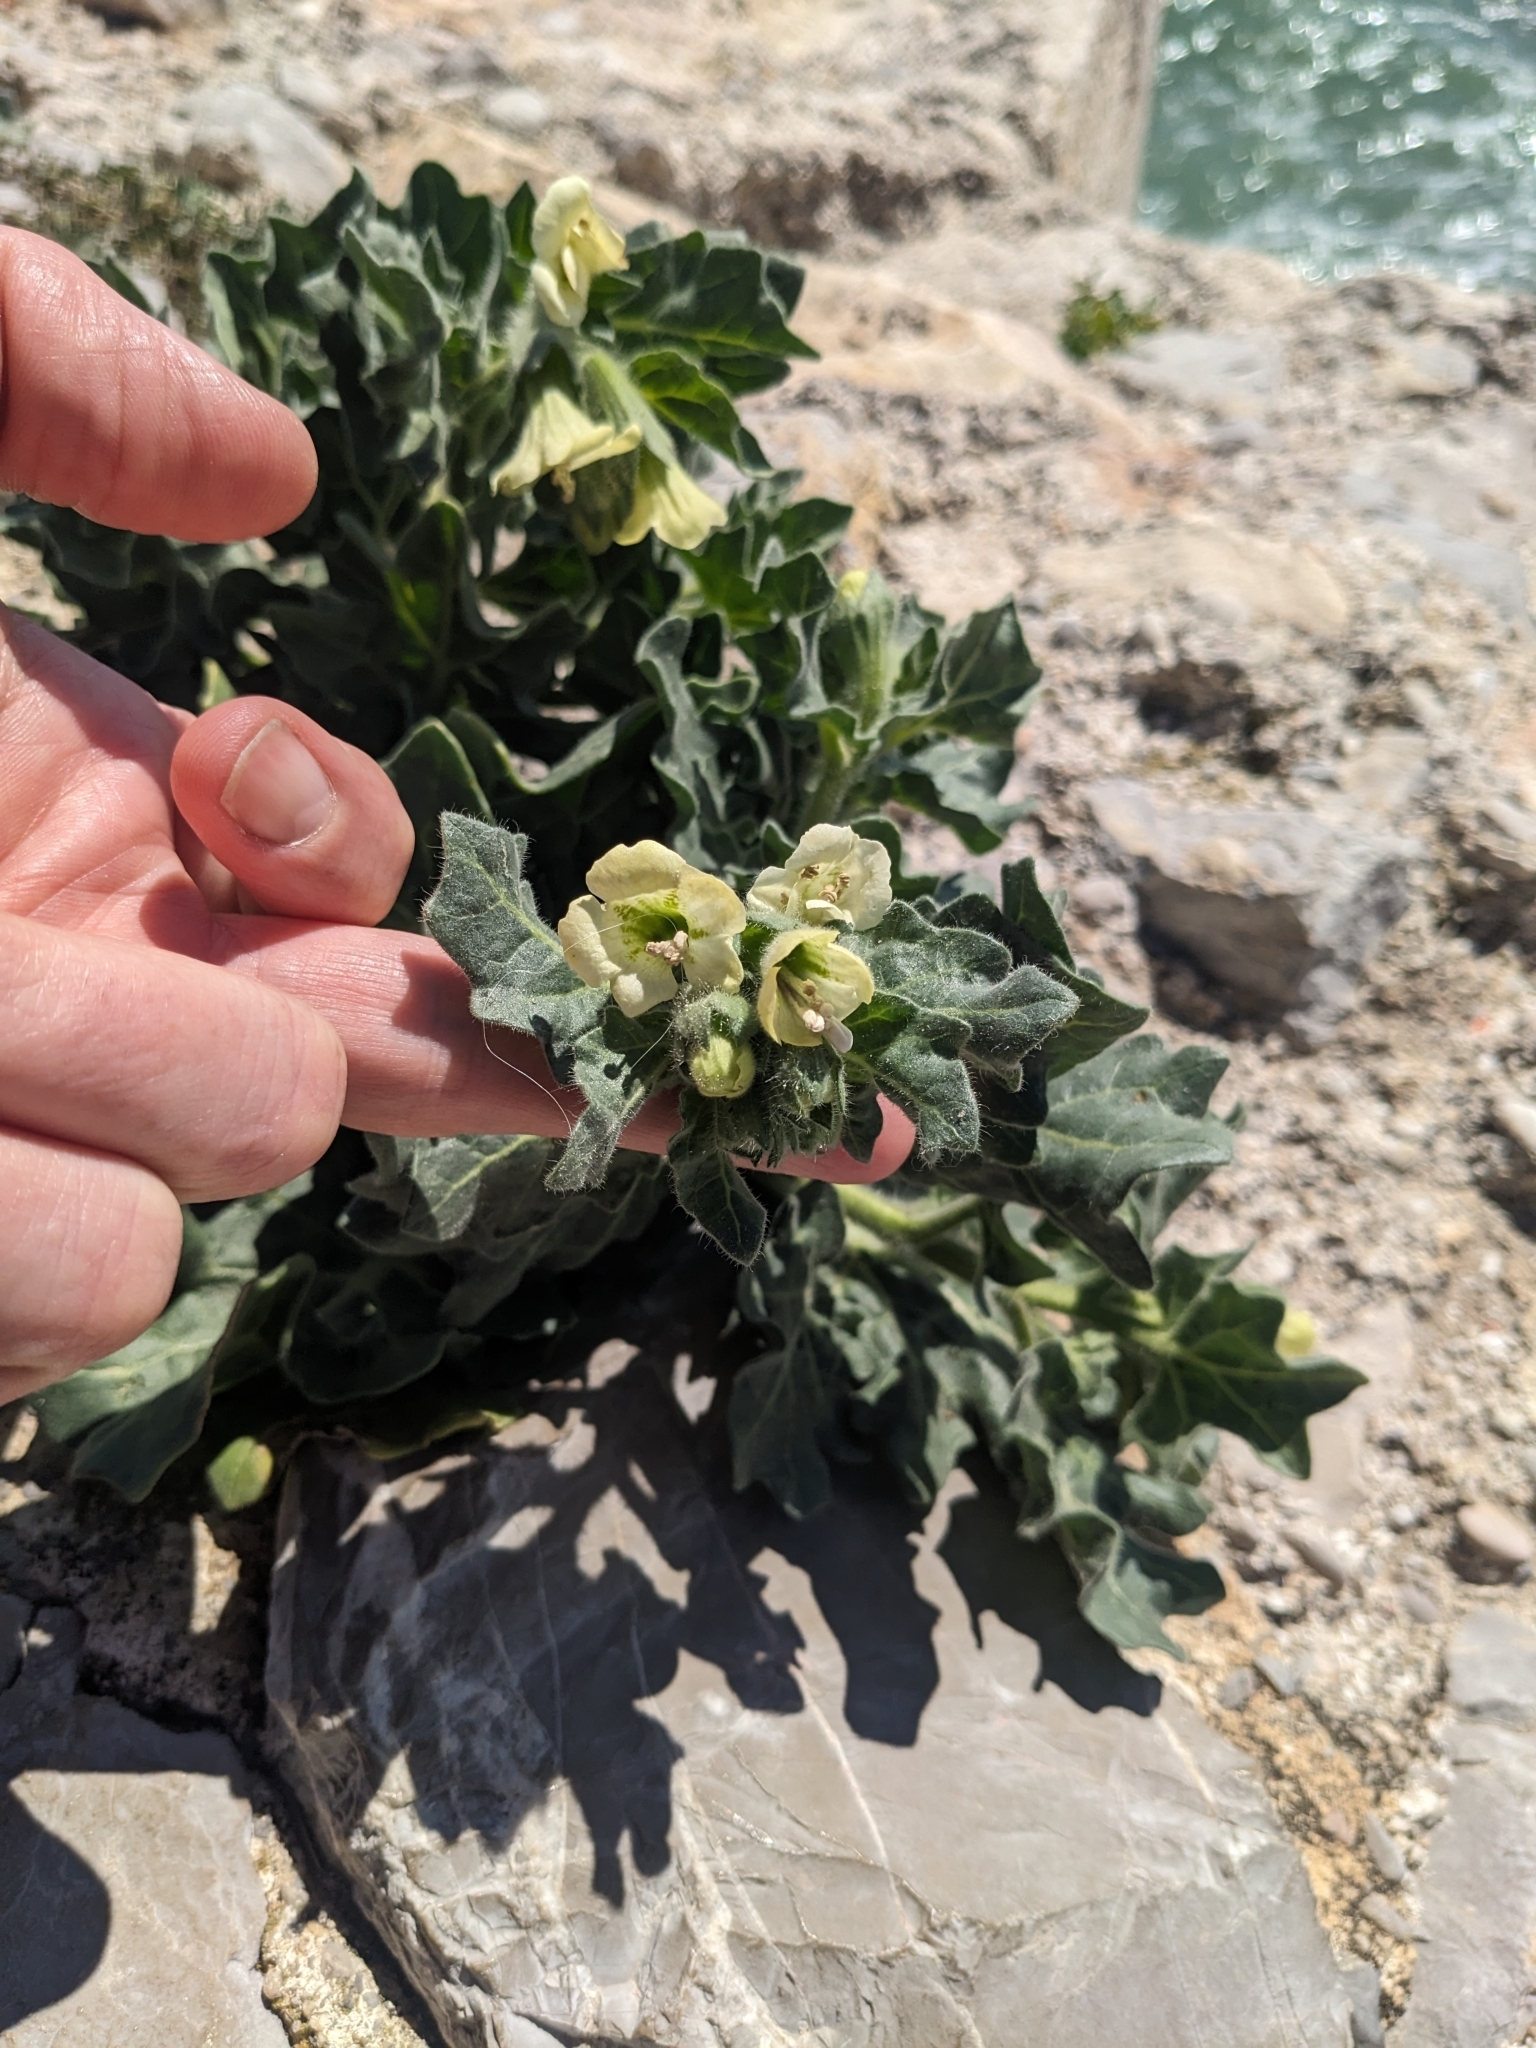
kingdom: Plantae
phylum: Tracheophyta
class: Magnoliopsida
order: Solanales
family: Solanaceae
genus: Hyoscyamus
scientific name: Hyoscyamus albus
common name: White henbane
